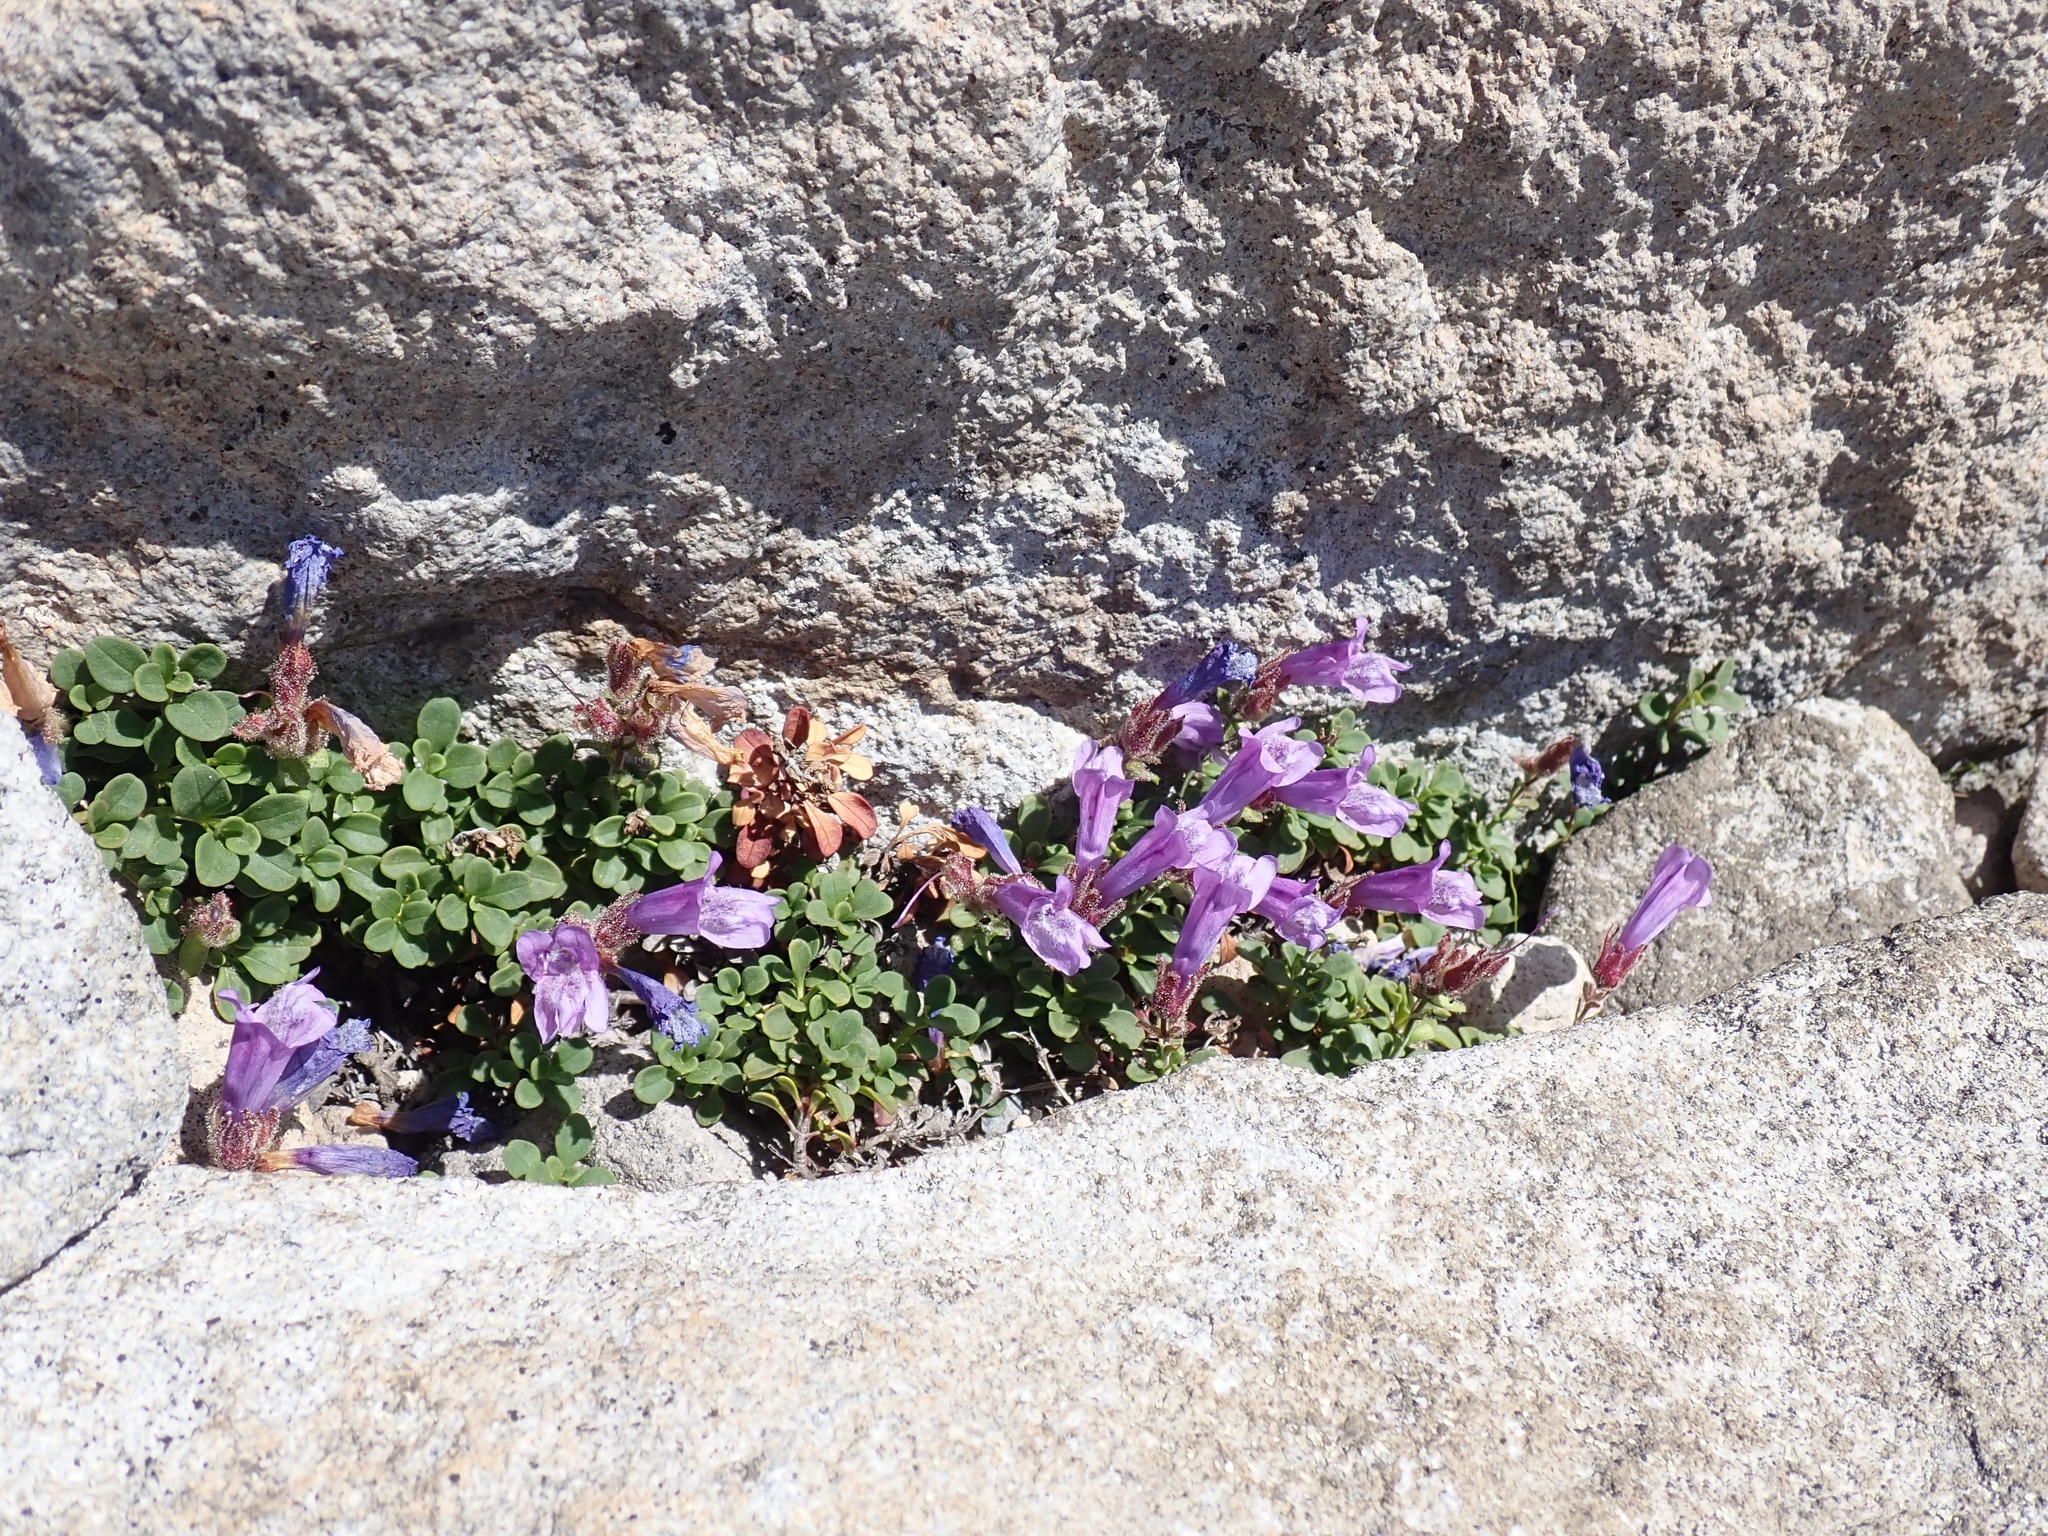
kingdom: Plantae
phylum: Tracheophyta
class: Magnoliopsida
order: Lamiales
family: Plantaginaceae
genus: Penstemon
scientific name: Penstemon davidsonii
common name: Davidson's penstemon
